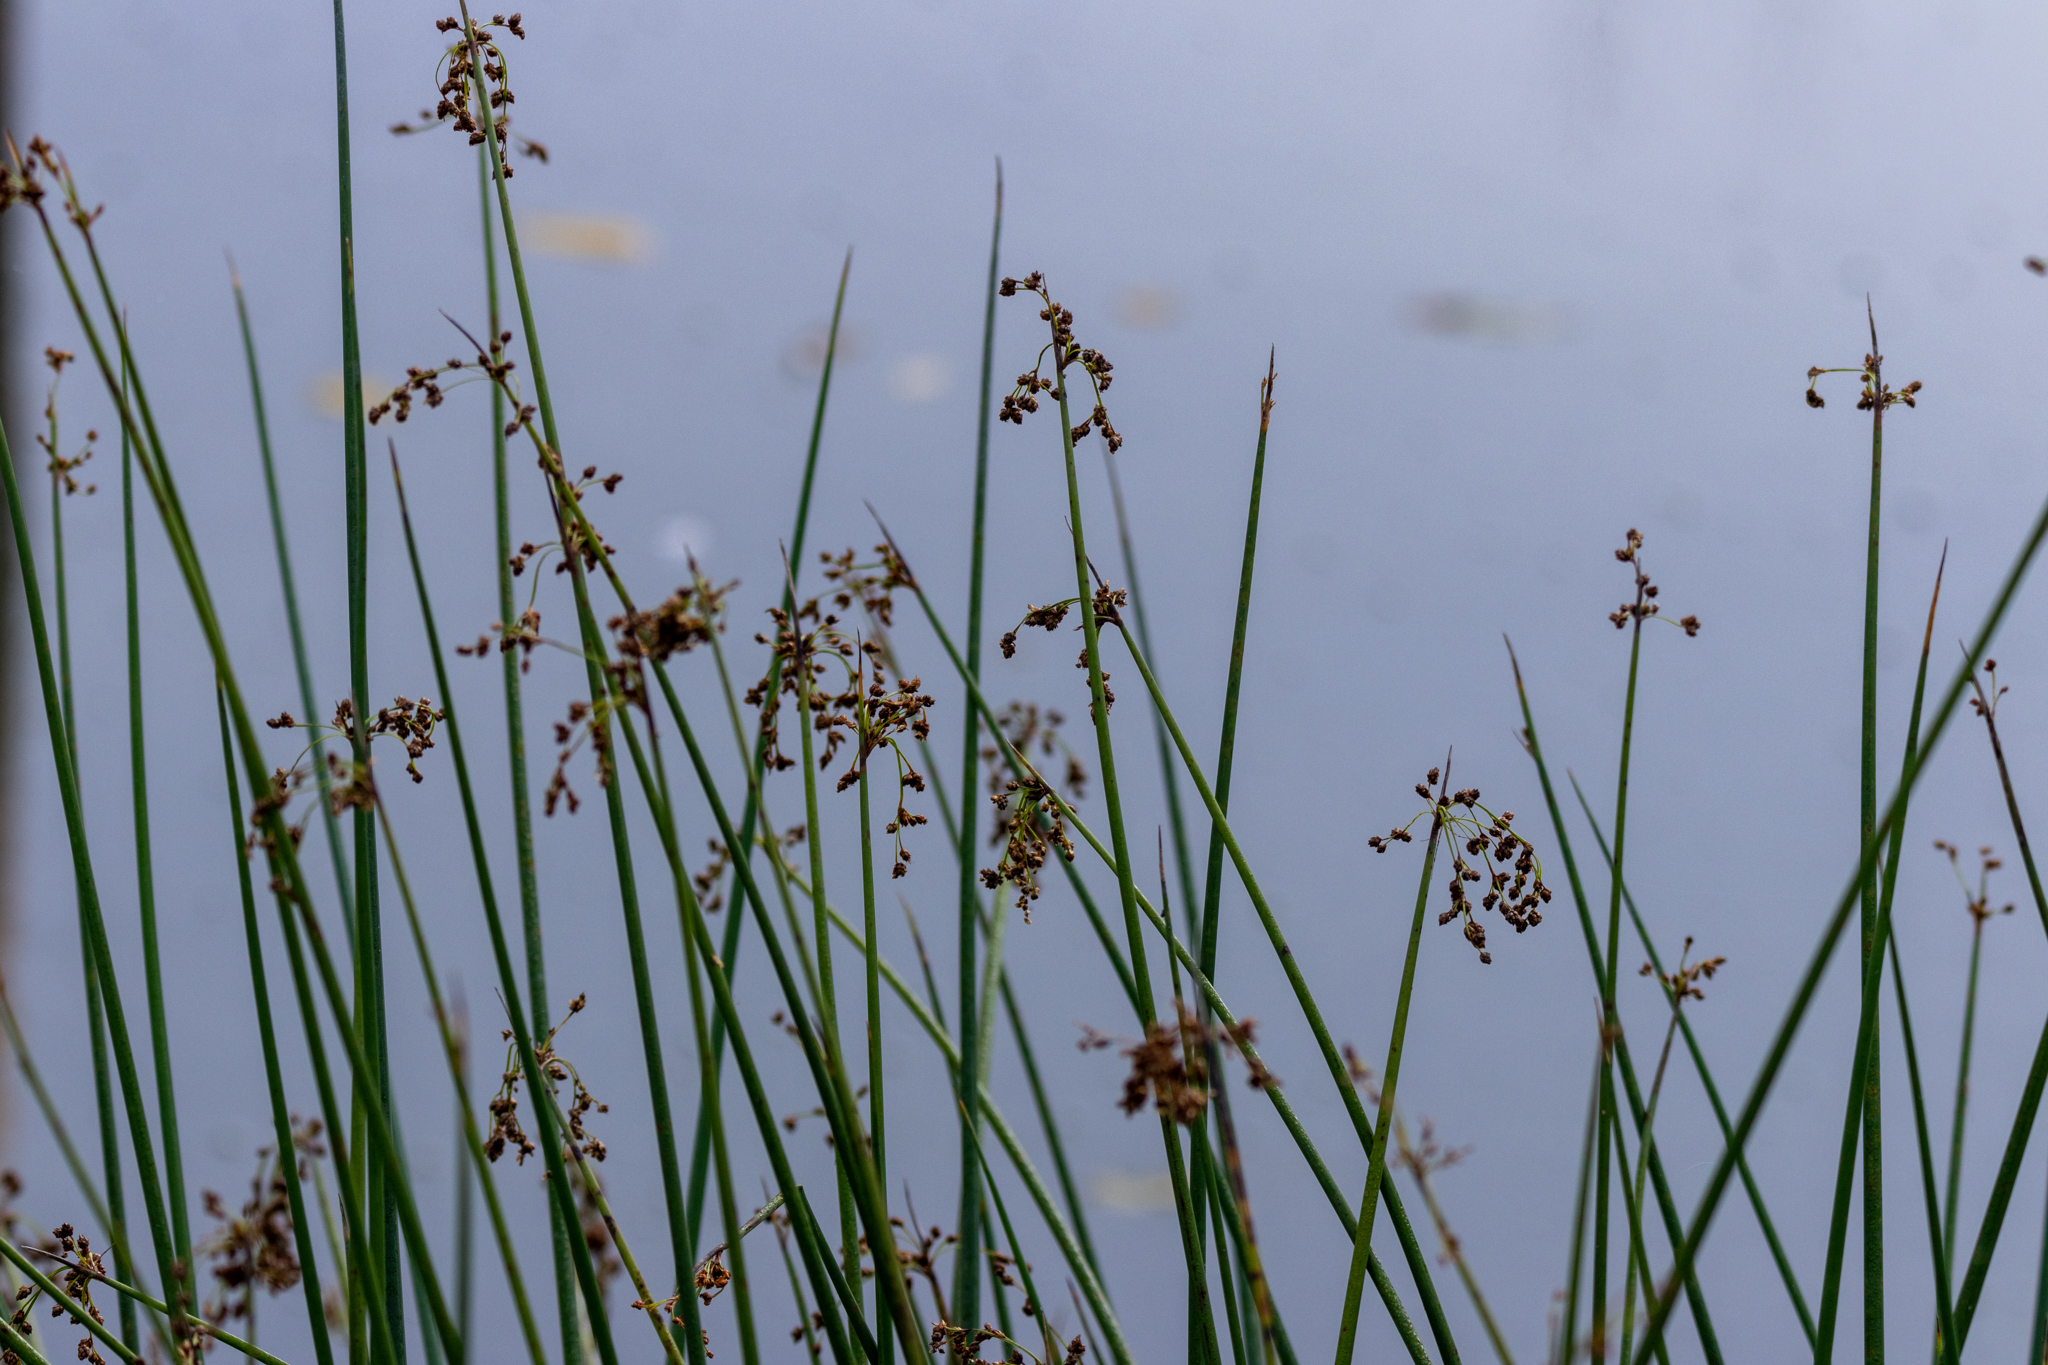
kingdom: Plantae
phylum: Tracheophyta
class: Liliopsida
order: Poales
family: Cyperaceae
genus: Schoenoplectus
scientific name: Schoenoplectus tabernaemontani
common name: Grey club-rush
